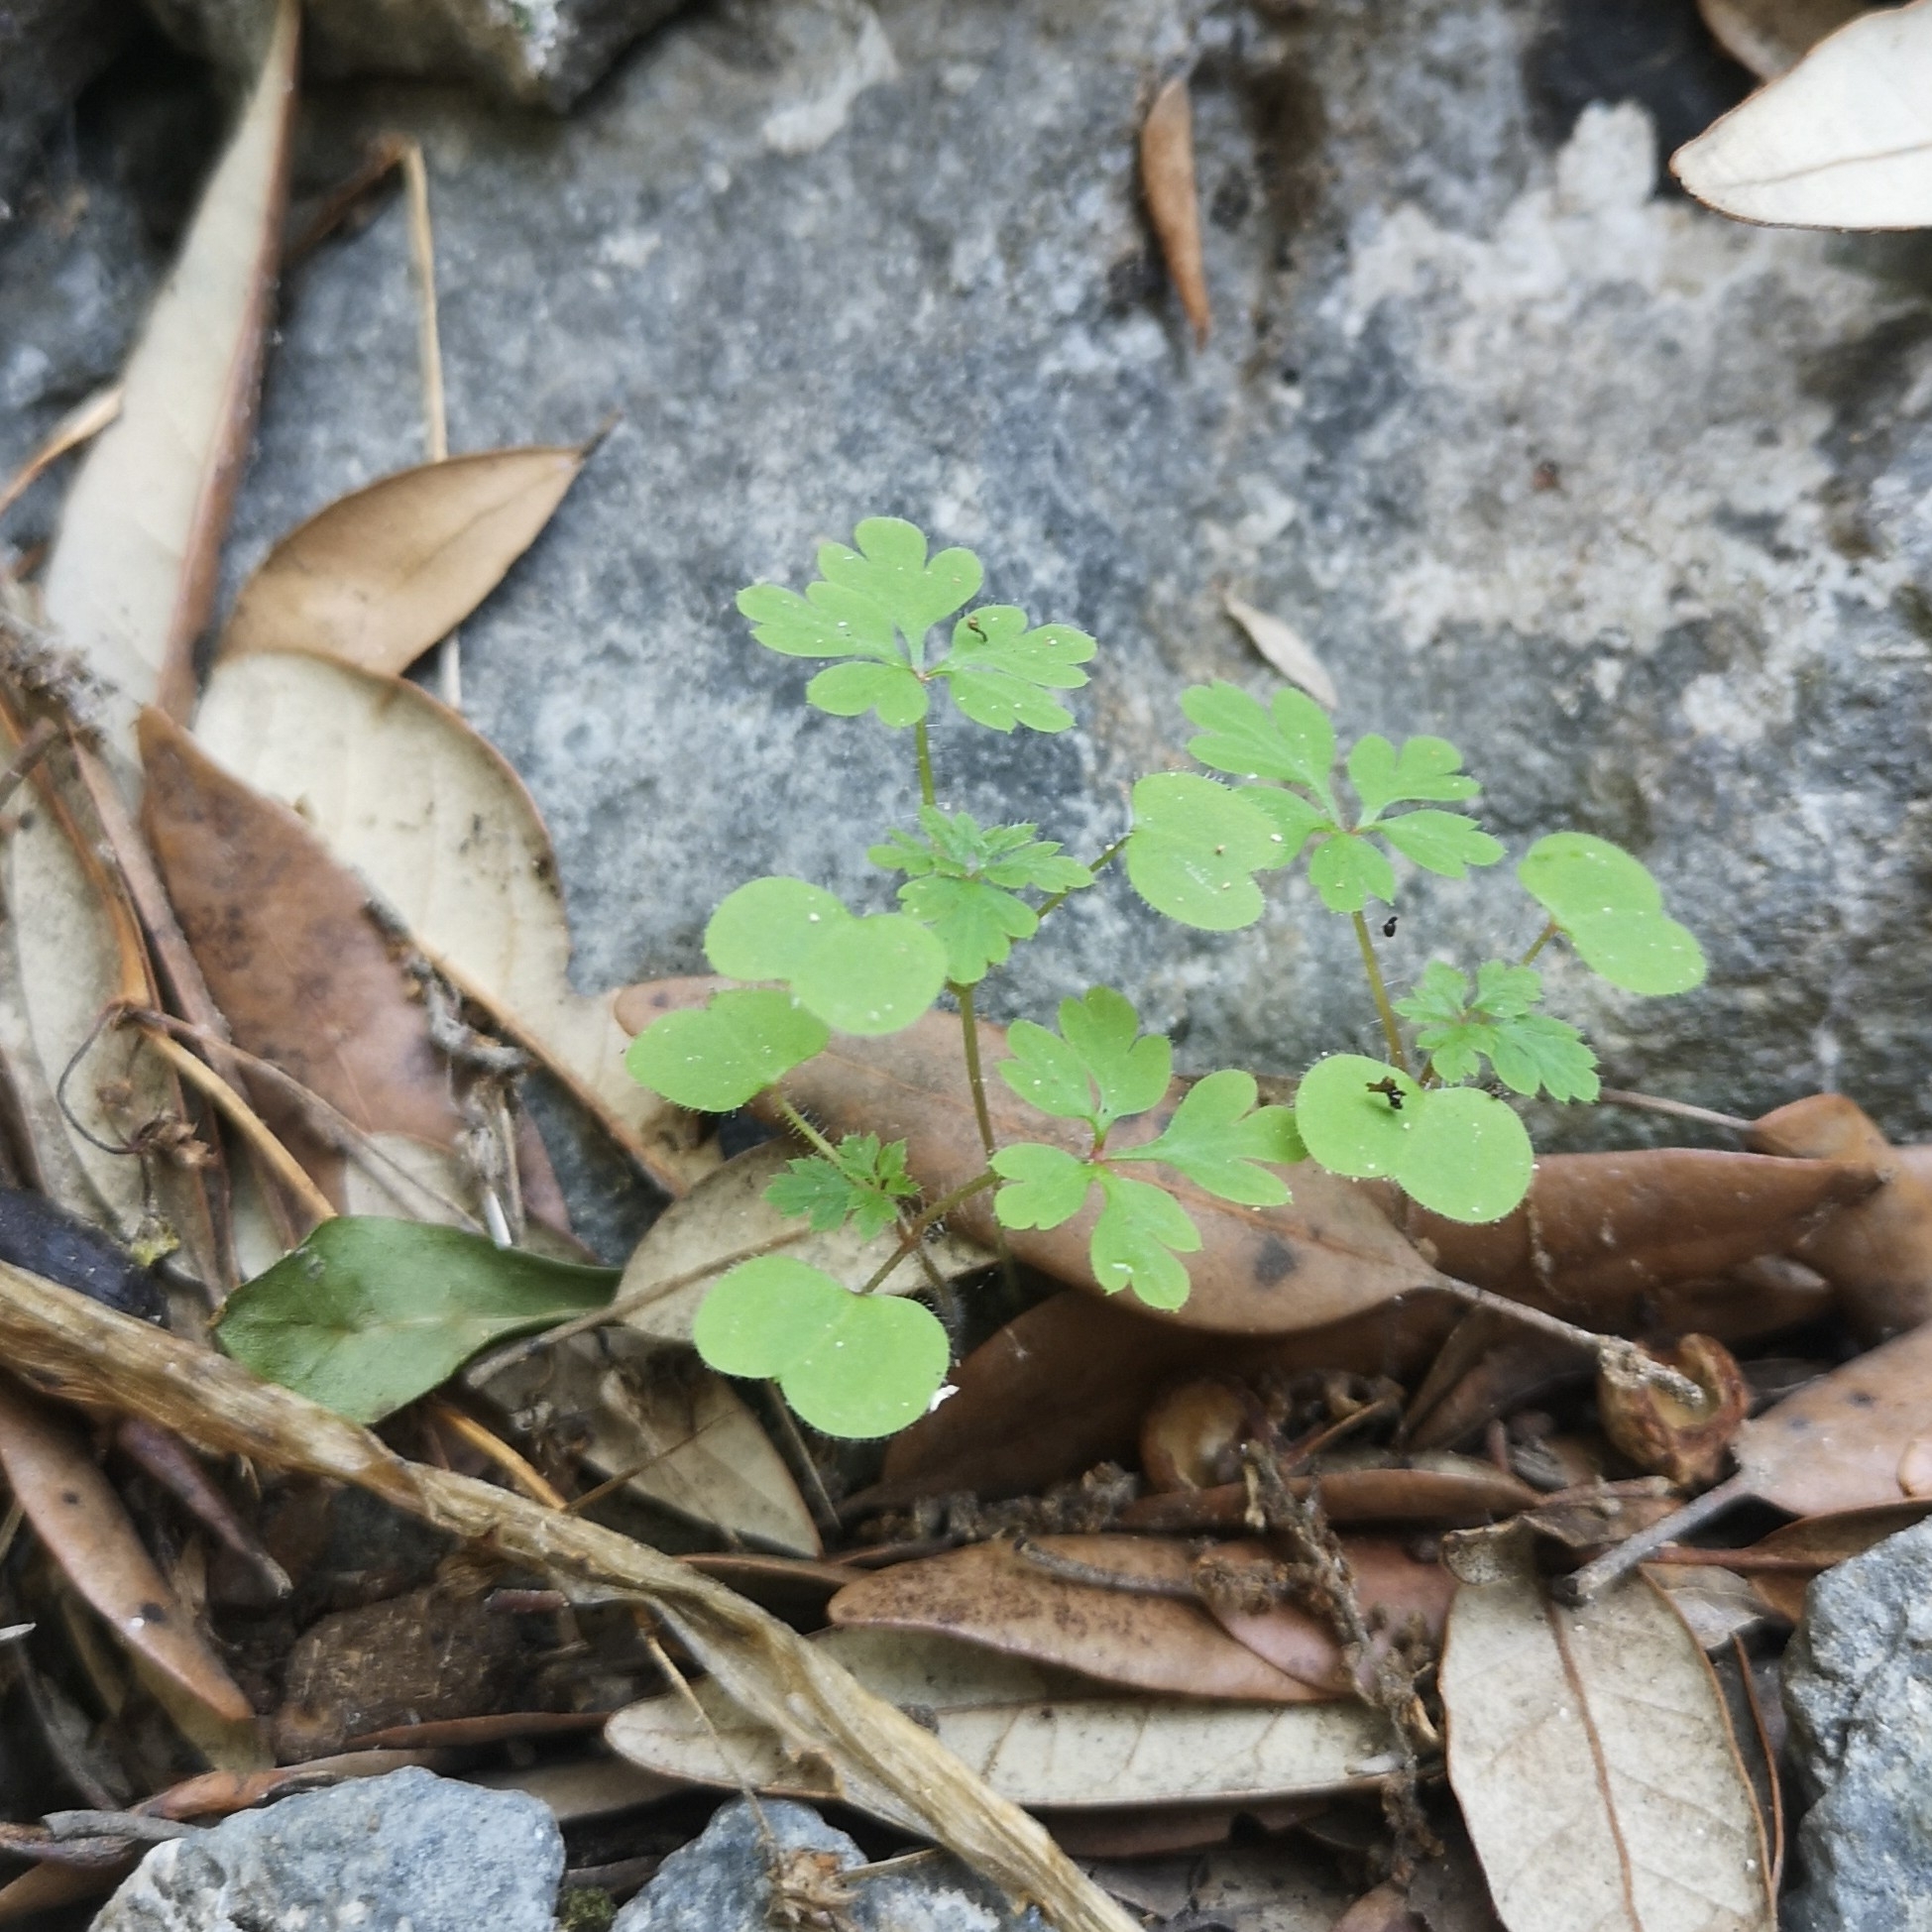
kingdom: Plantae
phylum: Tracheophyta
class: Magnoliopsida
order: Geraniales
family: Geraniaceae
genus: Geranium
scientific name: Geranium purpureum
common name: Little-robin
